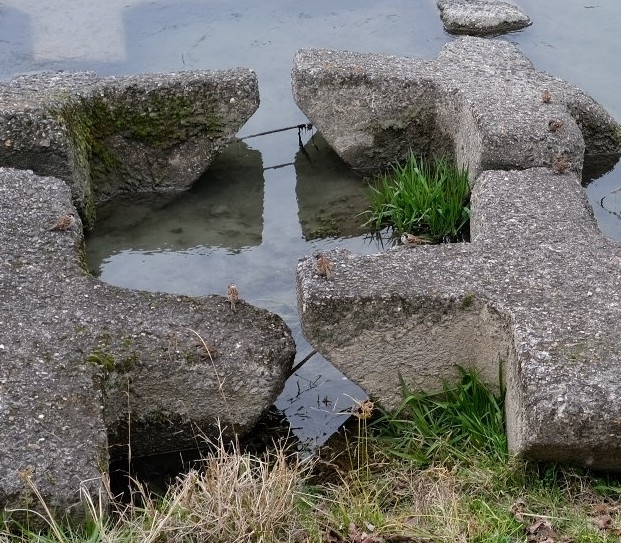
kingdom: Animalia
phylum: Chordata
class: Aves
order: Passeriformes
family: Passeridae
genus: Passer
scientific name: Passer montanus
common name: Eurasian tree sparrow
